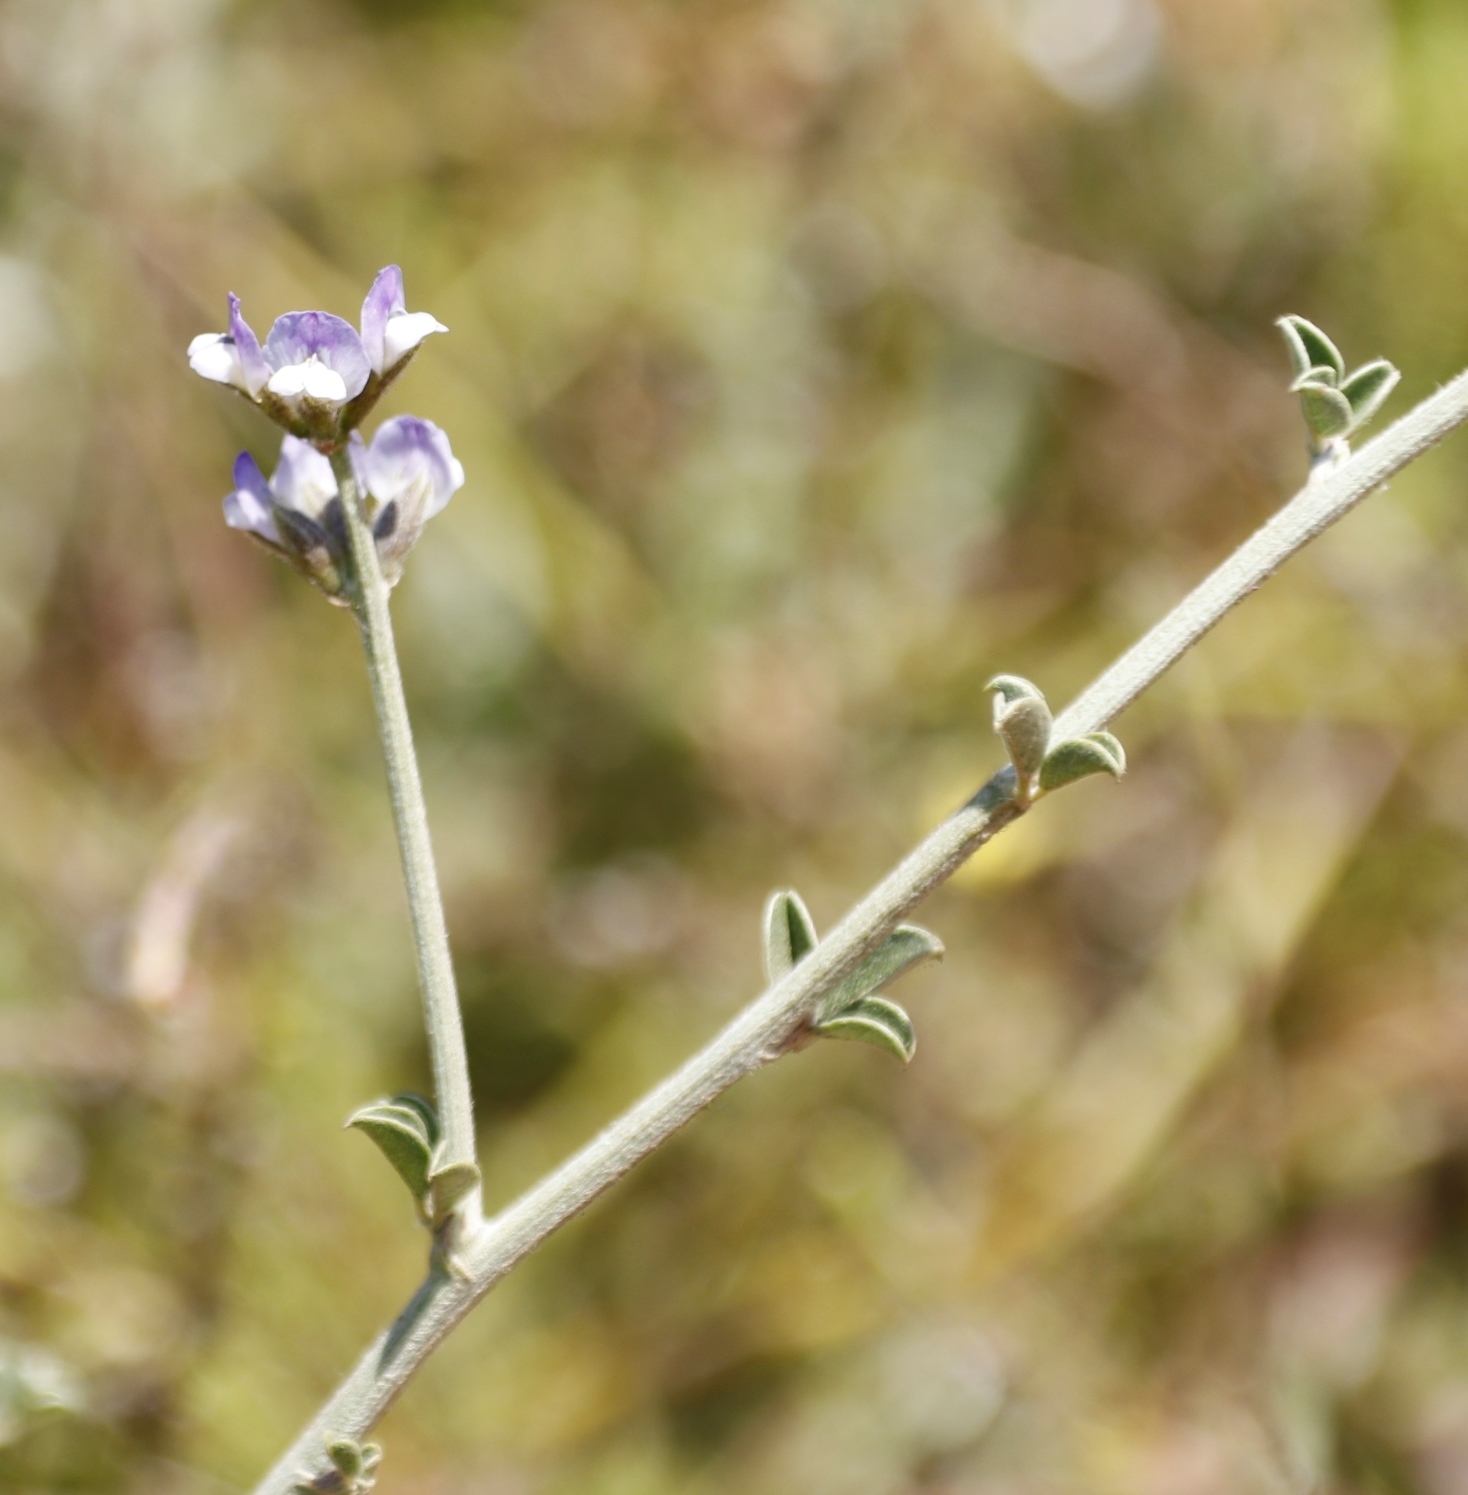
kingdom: Plantae
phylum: Tracheophyta
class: Magnoliopsida
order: Fabales
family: Fabaceae
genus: Psoralea
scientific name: Psoralea hirta
